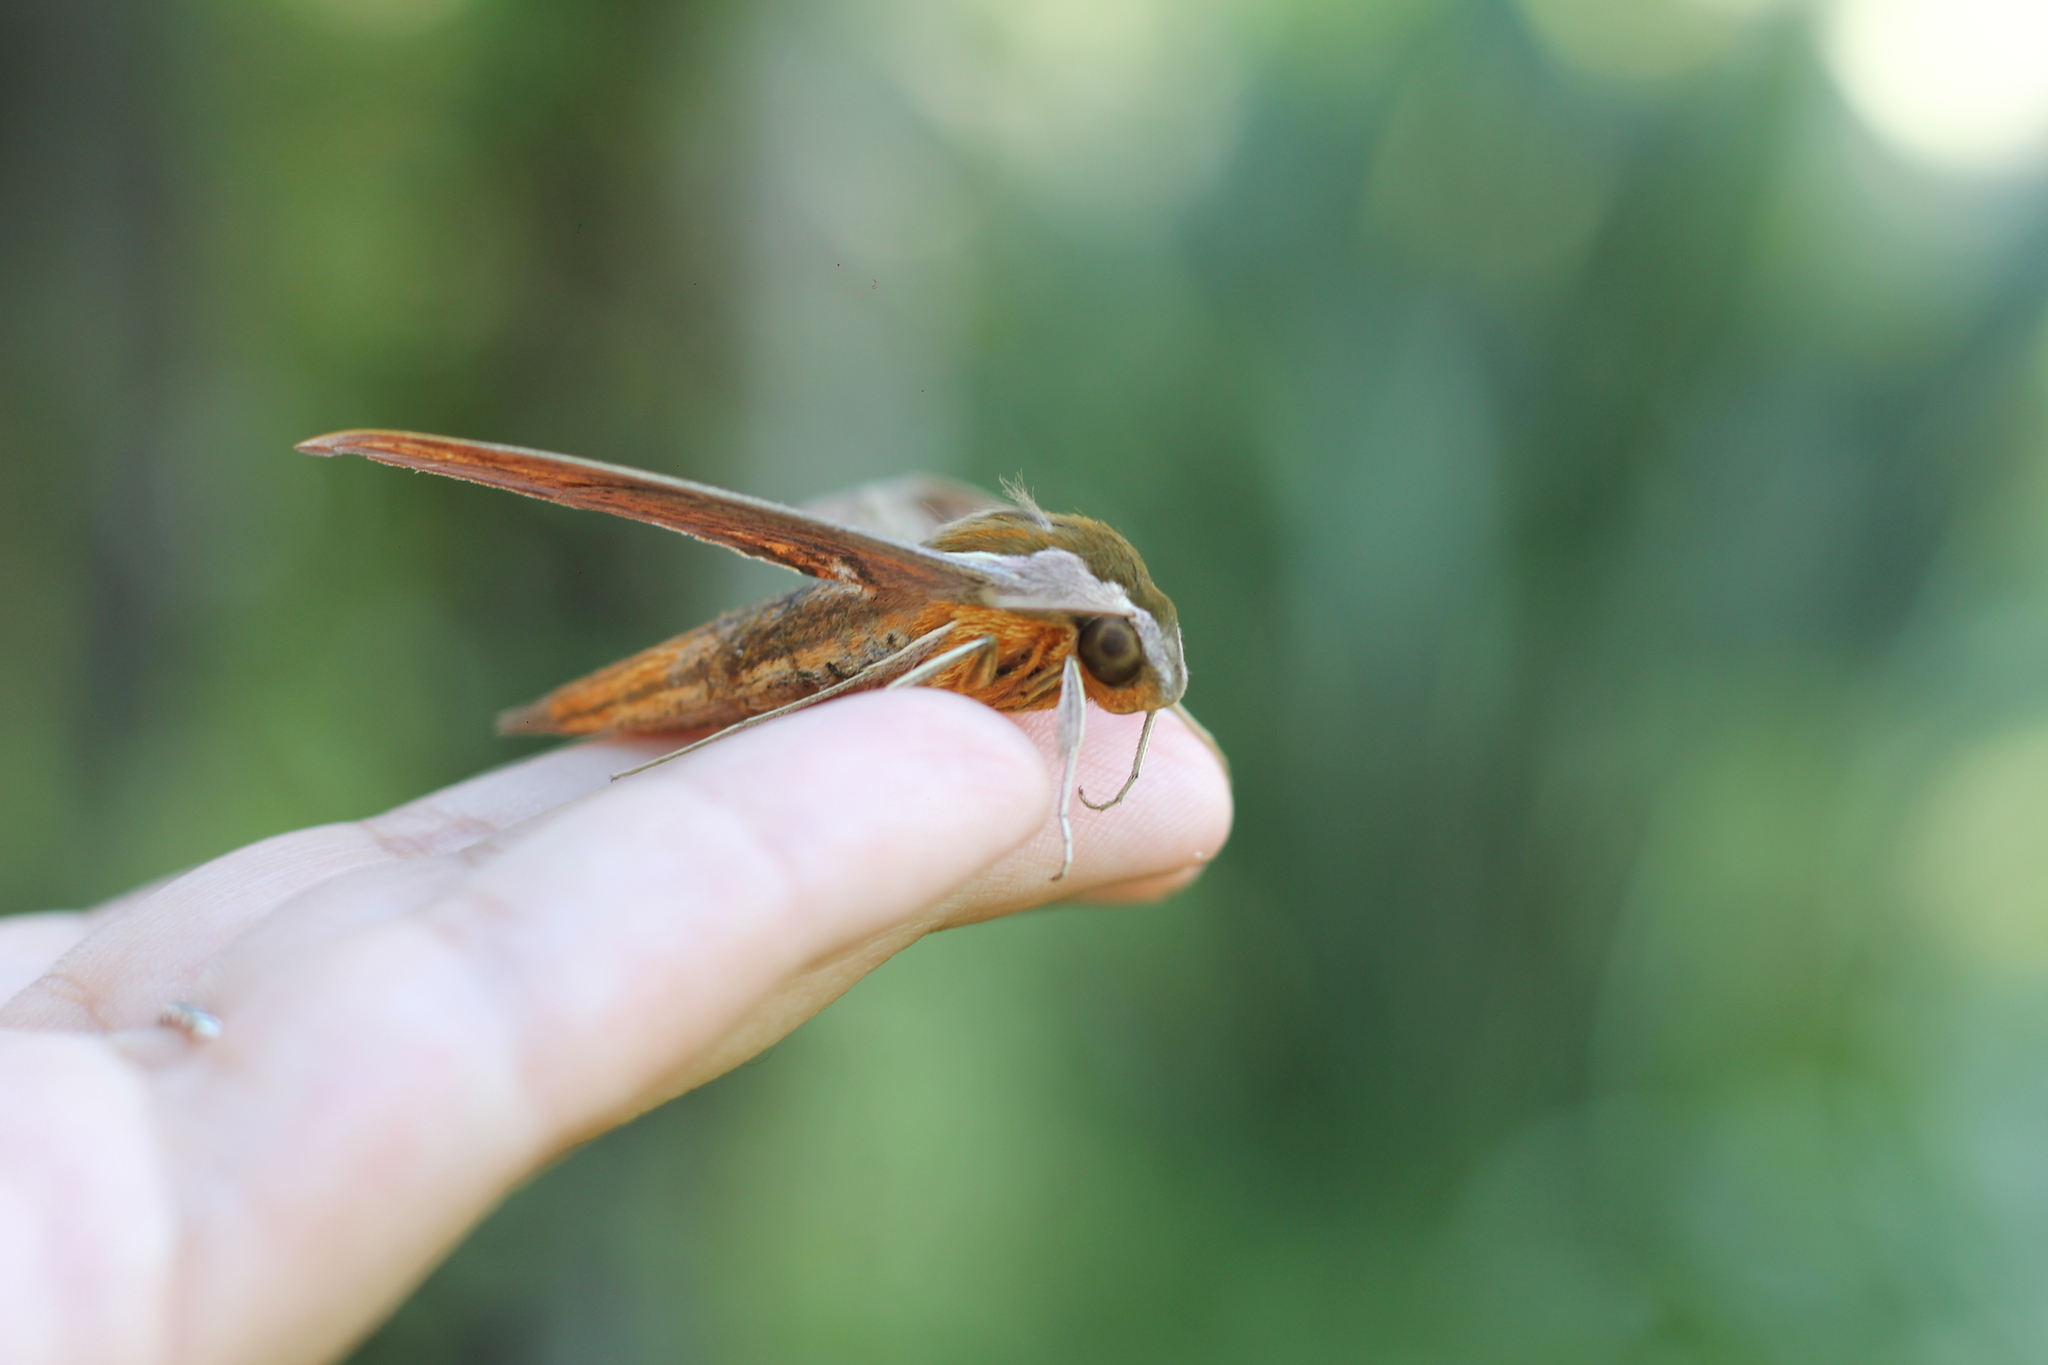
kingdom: Animalia
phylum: Arthropoda
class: Insecta
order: Lepidoptera
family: Sphingidae
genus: Xylophanes
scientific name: Xylophanes tersa
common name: Tersa sphinx
